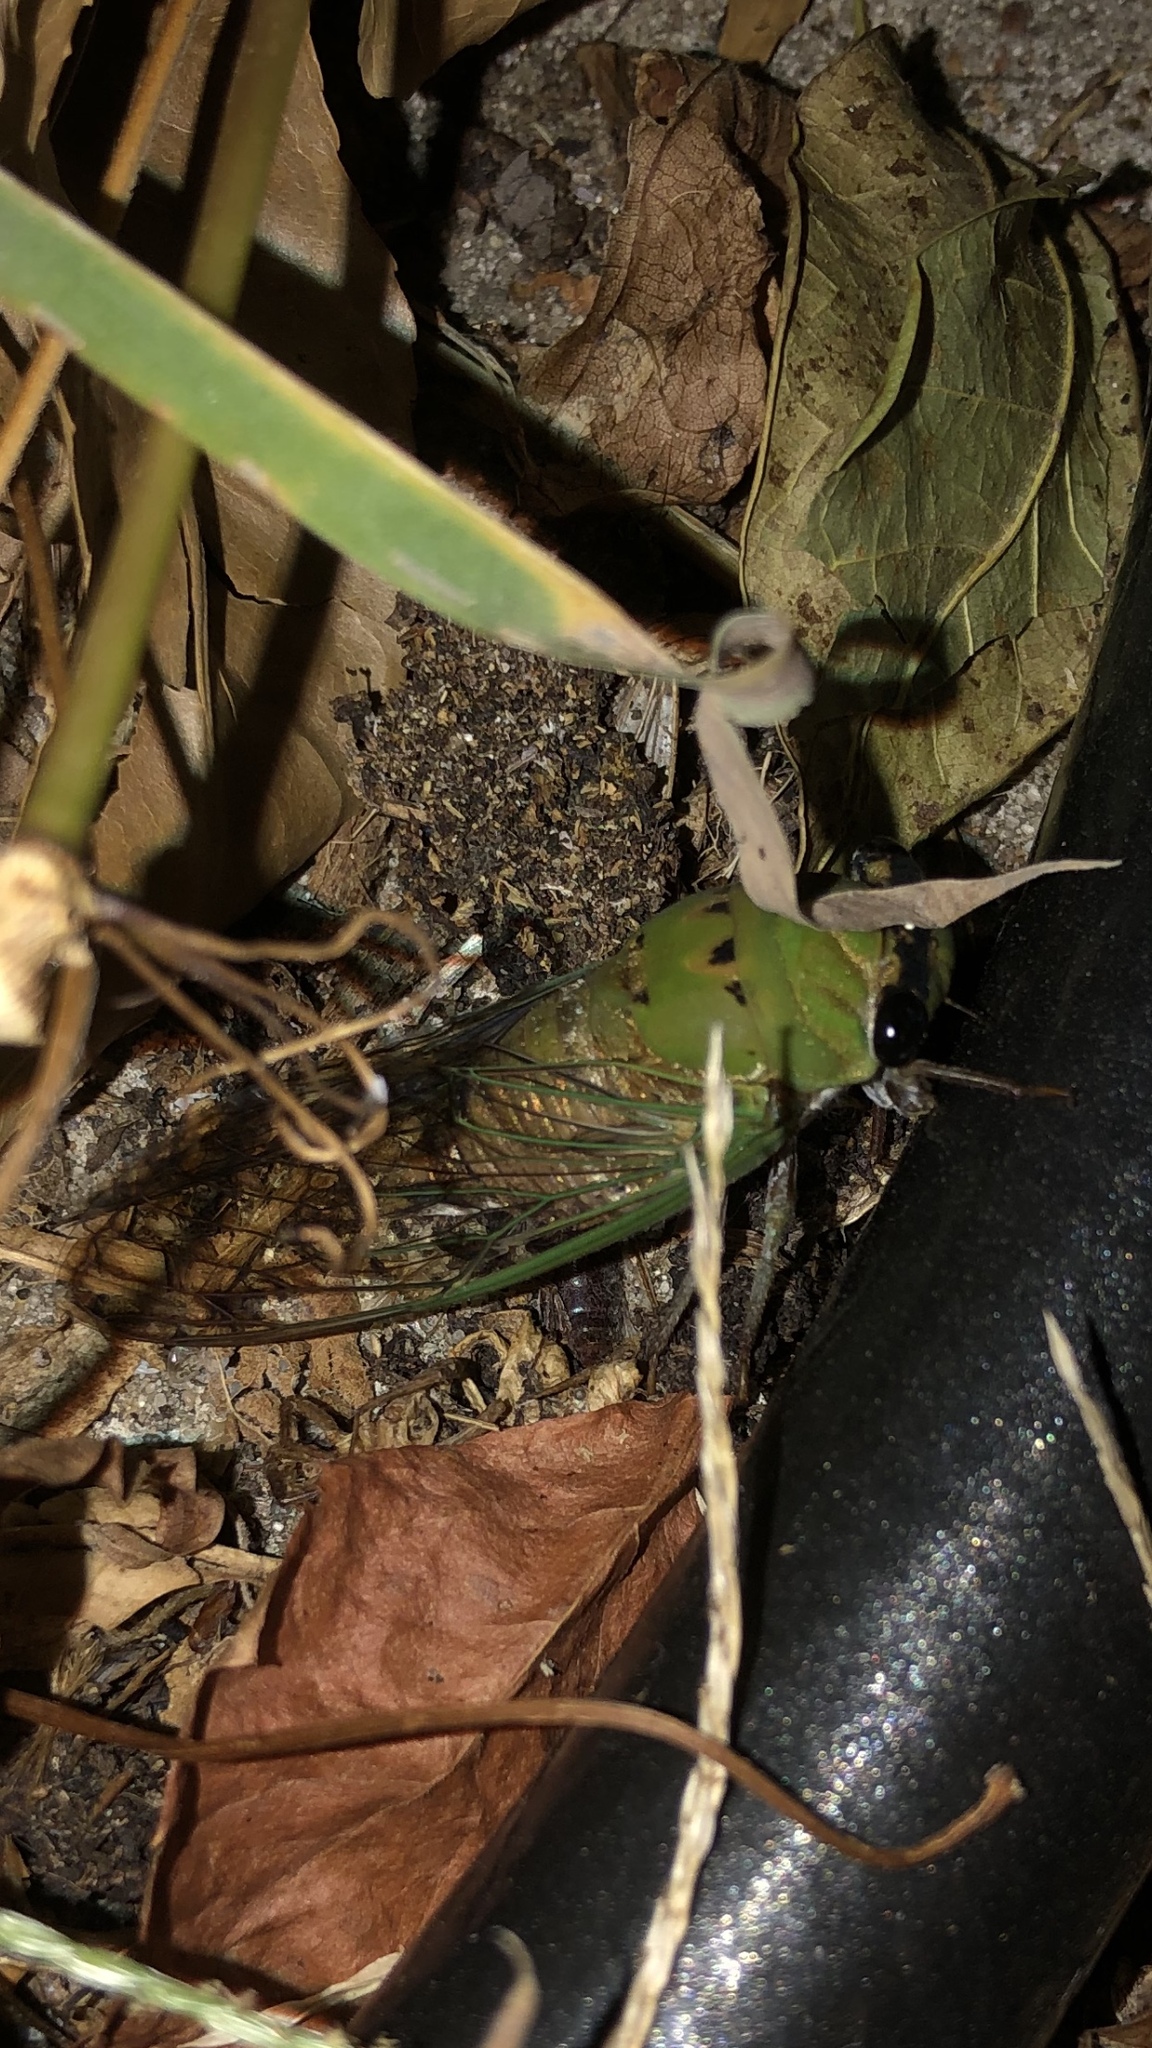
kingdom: Animalia
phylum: Arthropoda
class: Insecta
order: Hemiptera
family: Cicadidae
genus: Neotibicen
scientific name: Neotibicen superbus
